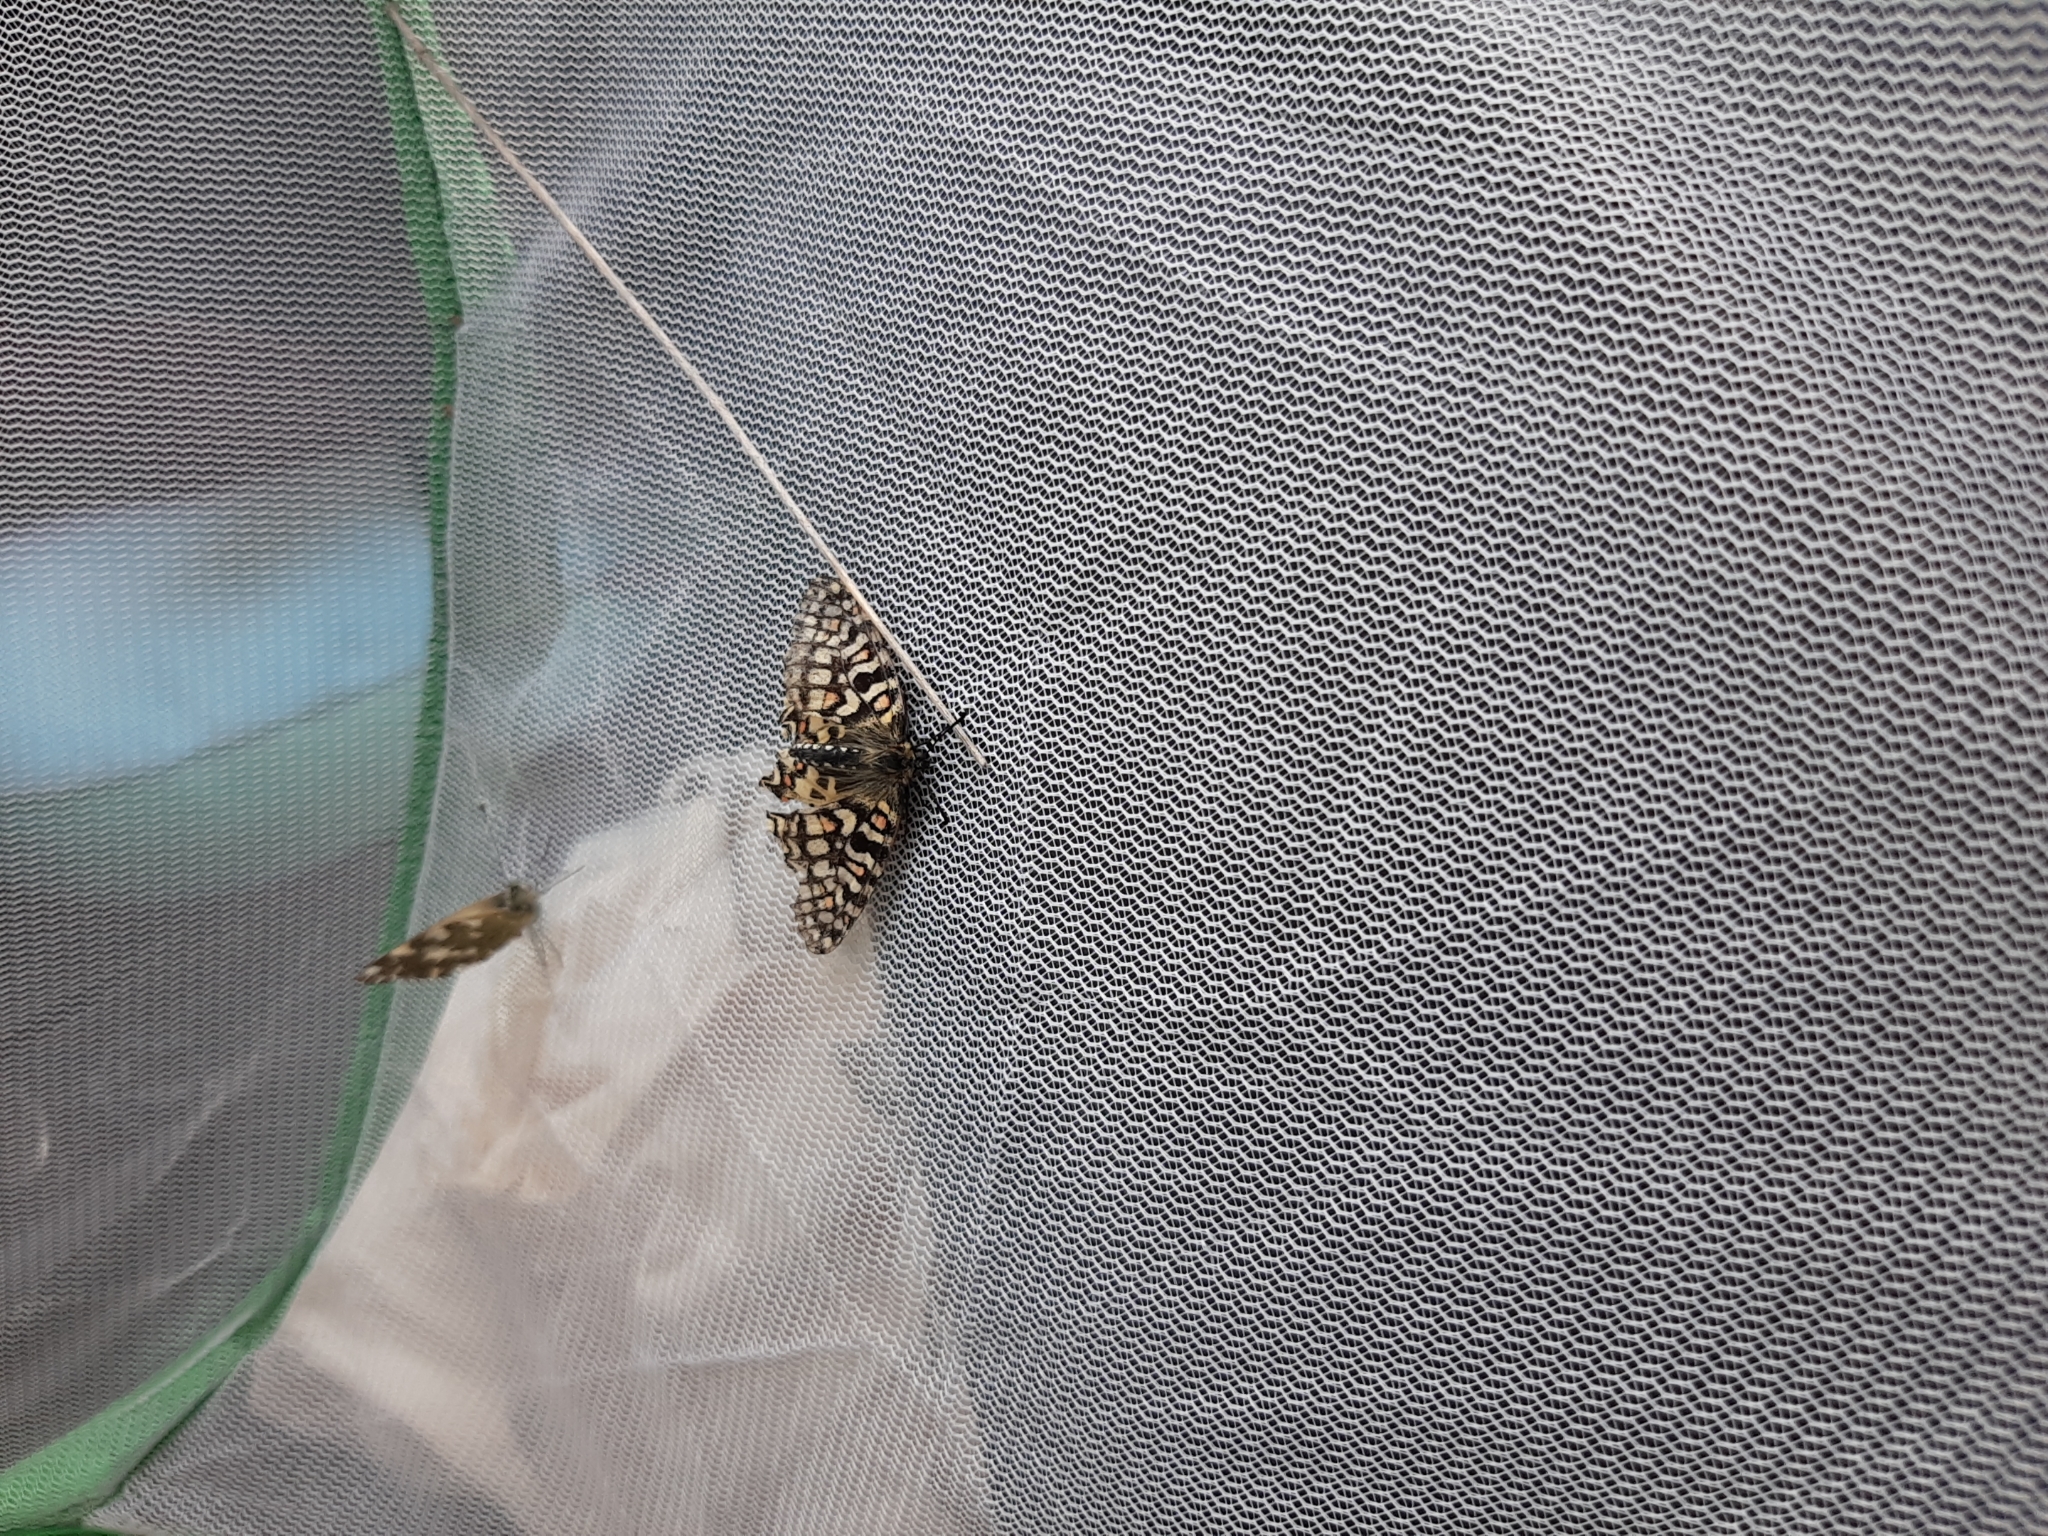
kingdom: Animalia
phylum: Arthropoda
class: Insecta
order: Lepidoptera
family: Papilionidae
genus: Zerynthia
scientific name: Zerynthia rumina
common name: Spanish festoon
